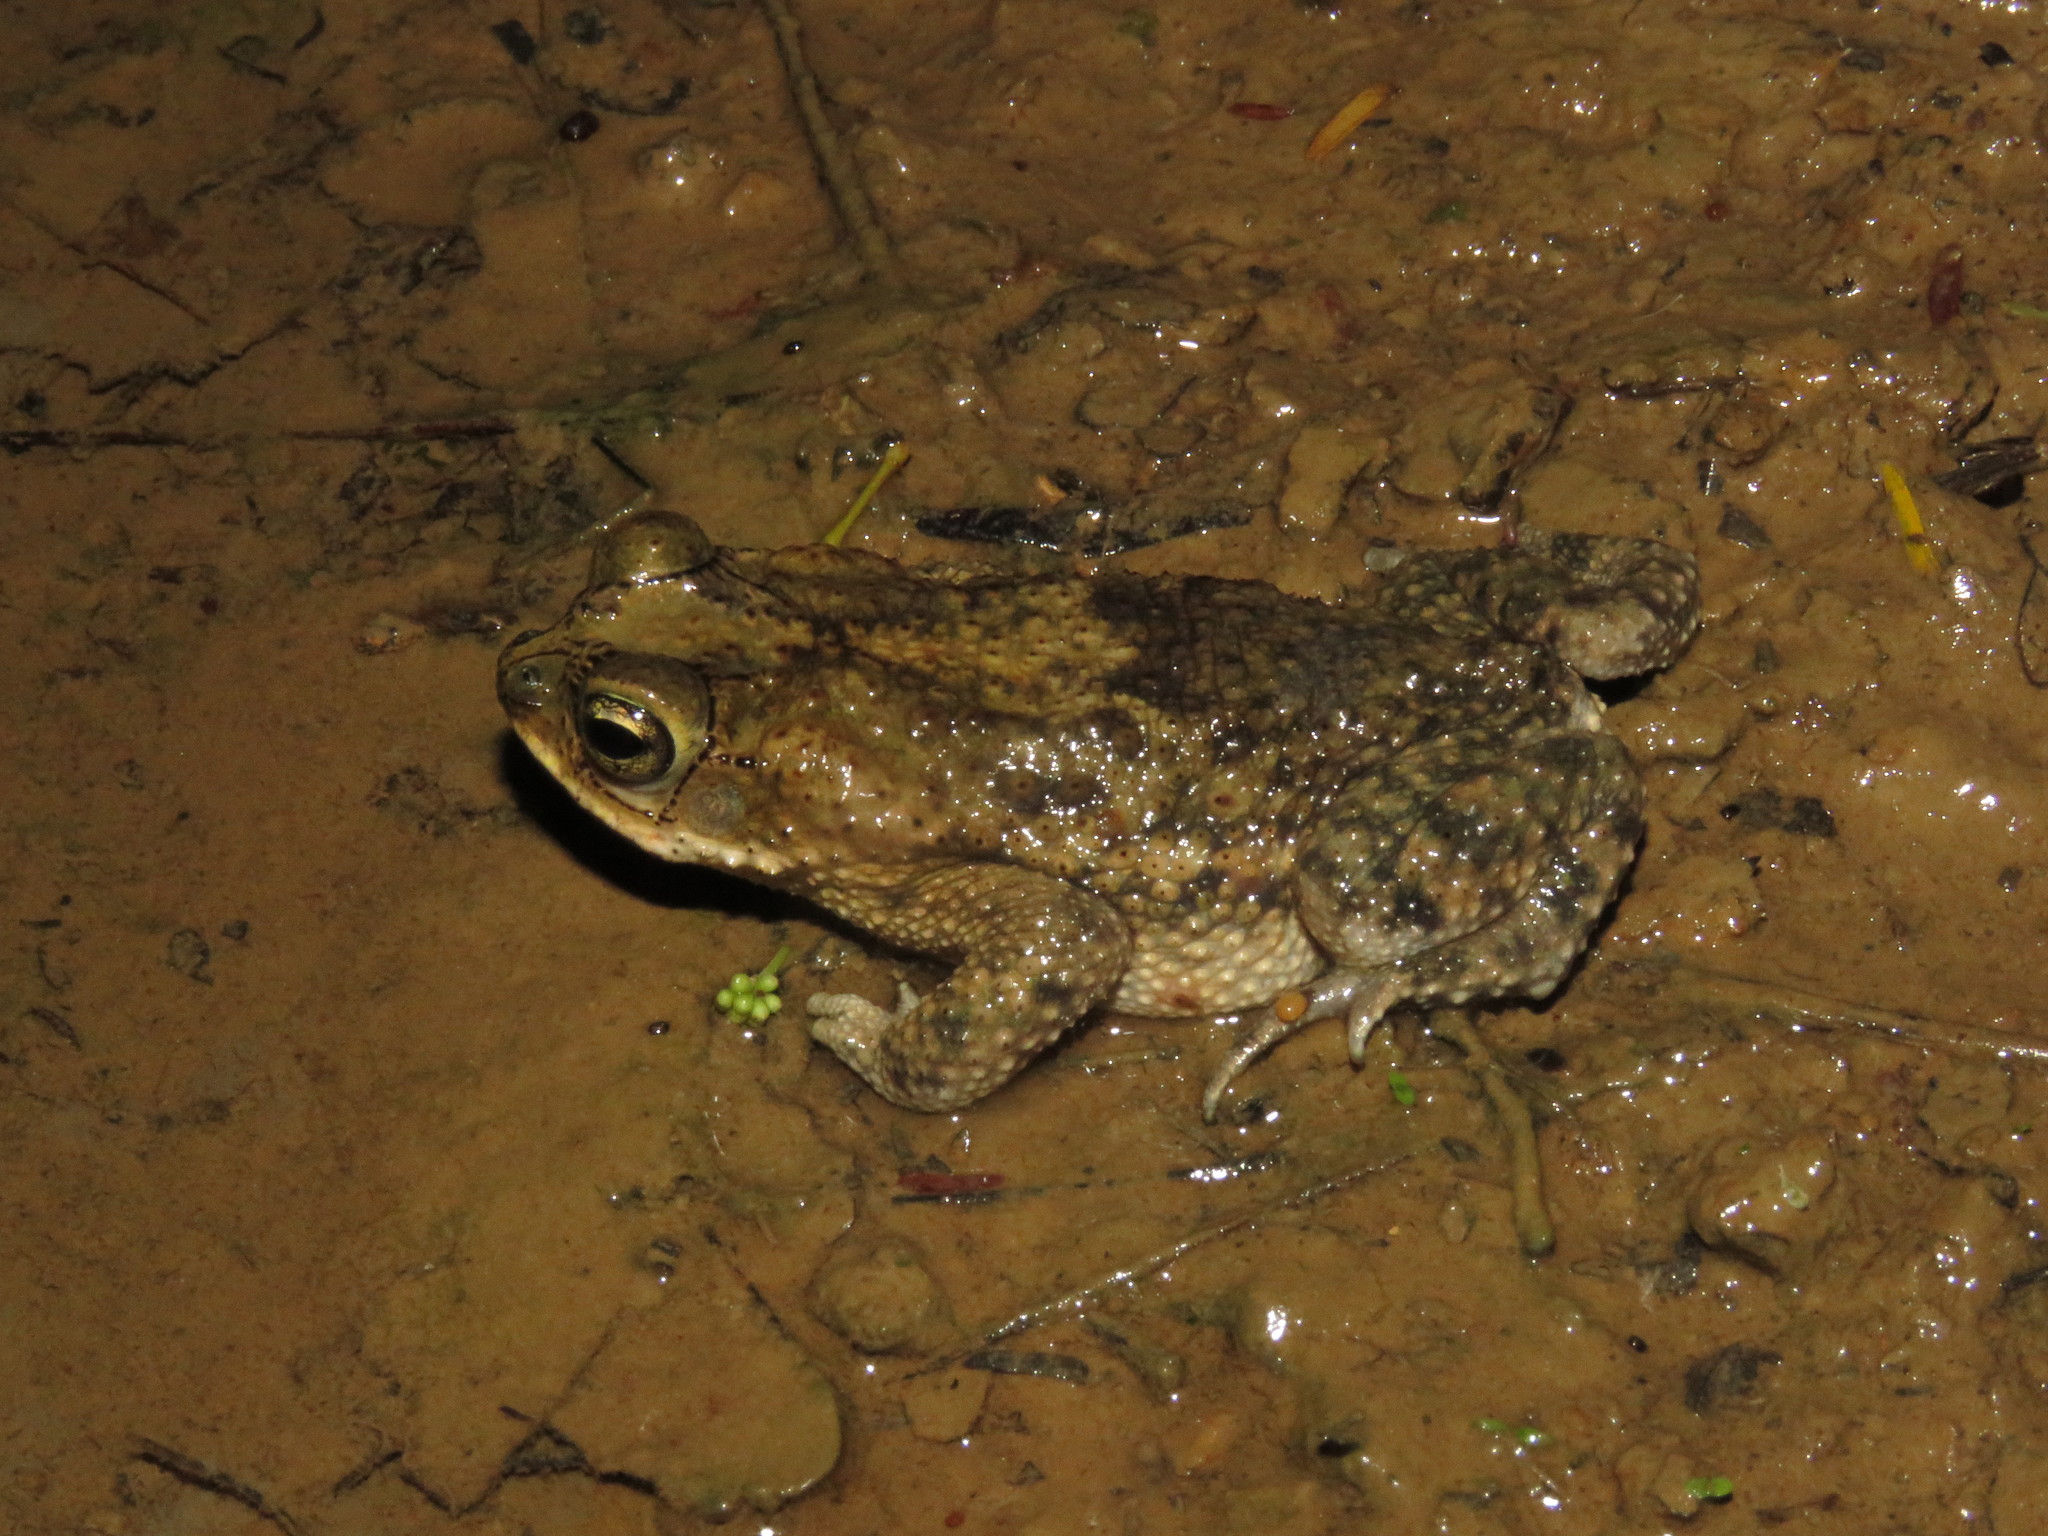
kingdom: Animalia
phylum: Chordata
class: Amphibia
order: Anura
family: Bufonidae
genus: Rhinella
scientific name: Rhinella major
